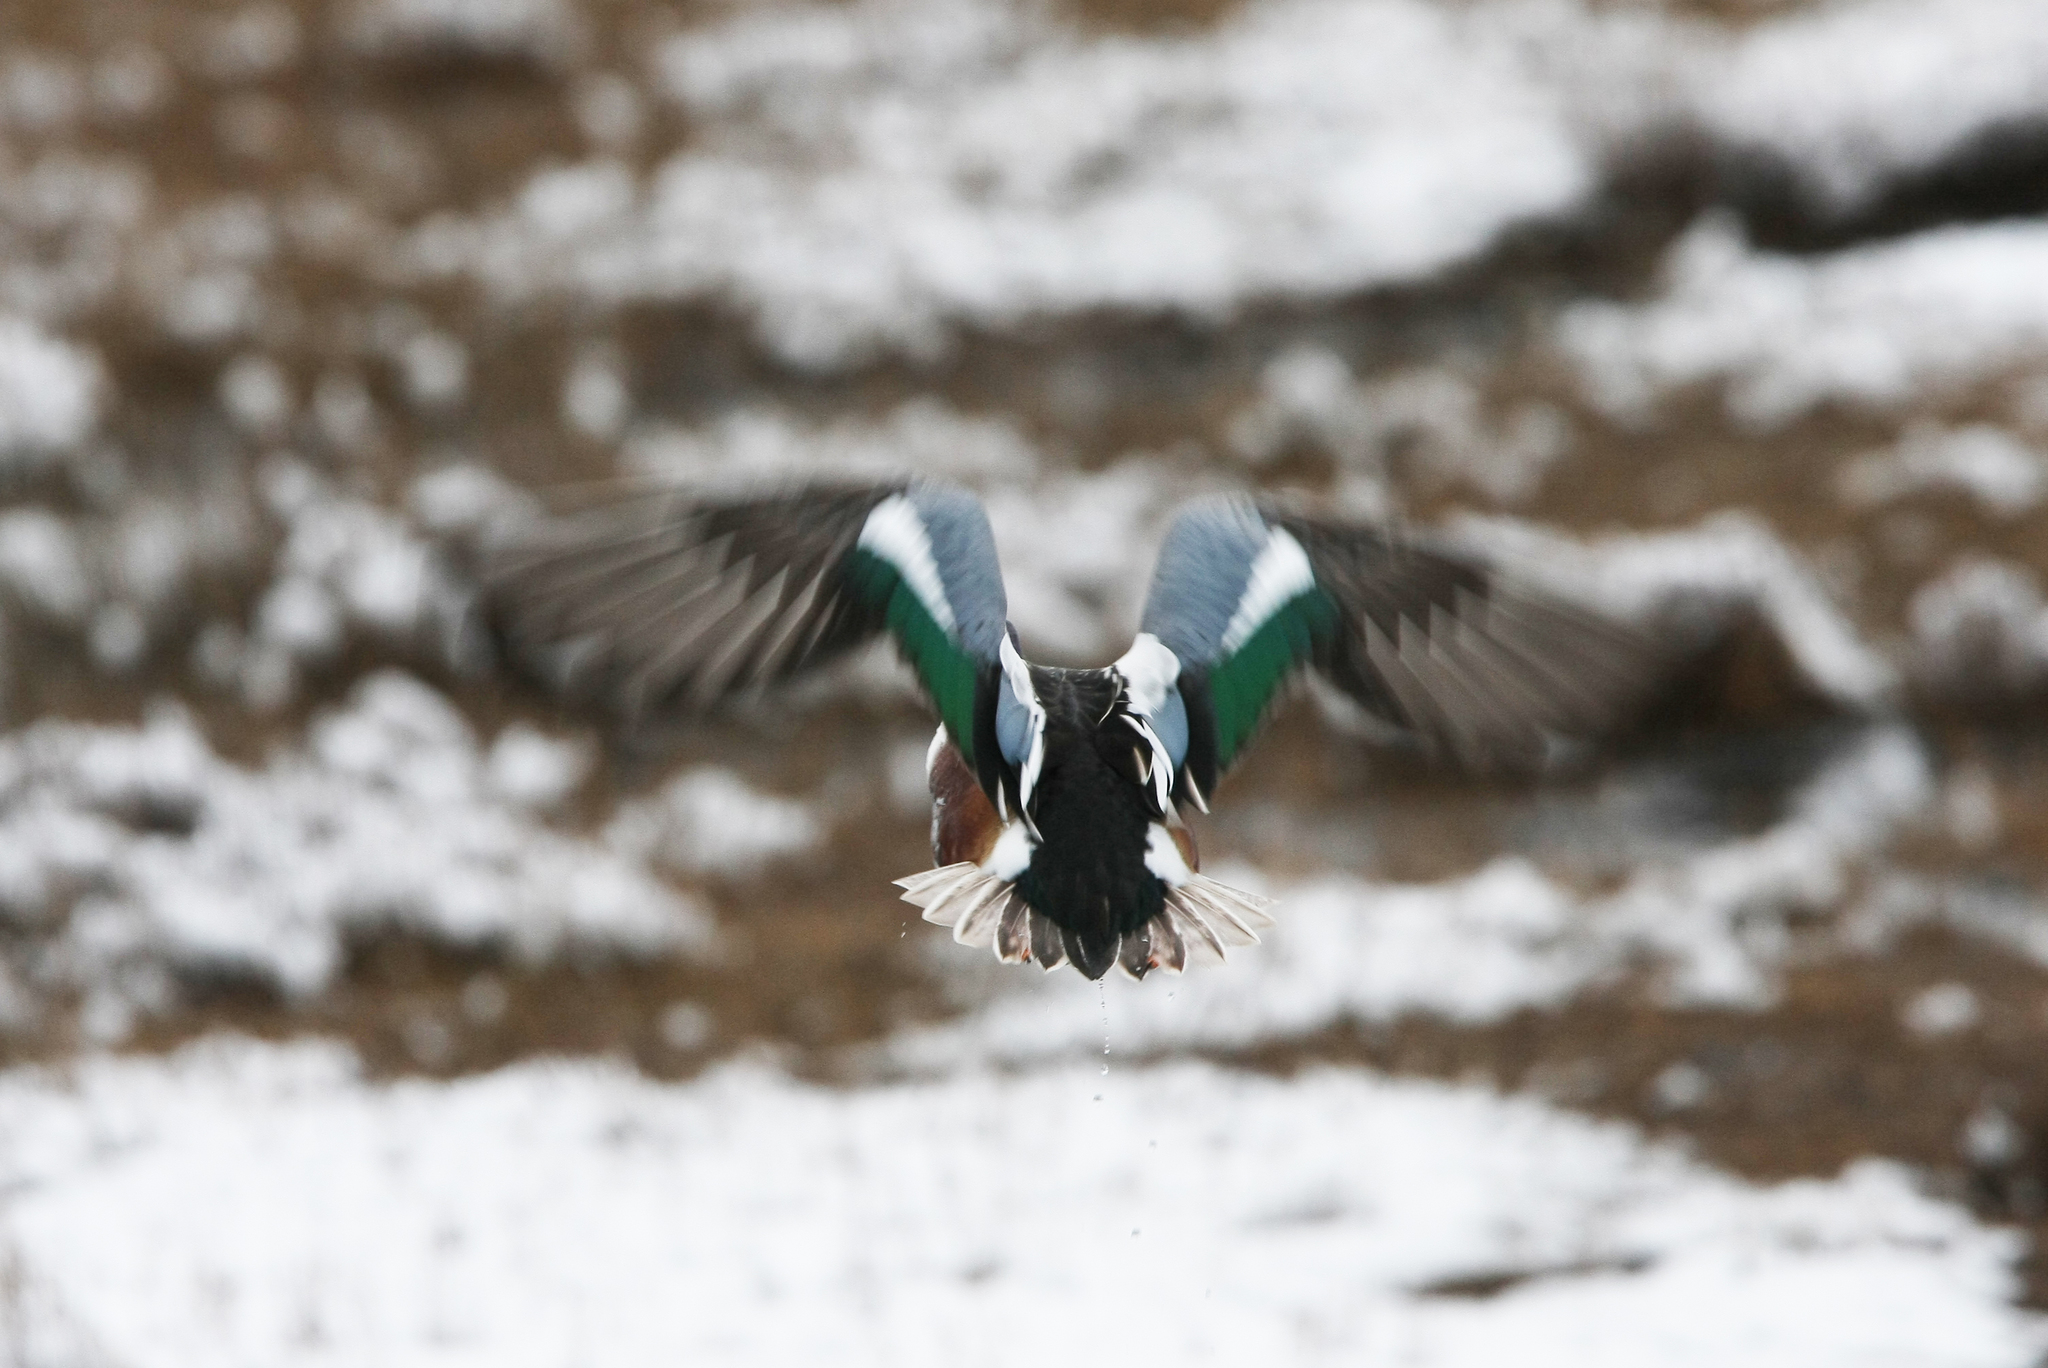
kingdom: Animalia
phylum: Chordata
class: Aves
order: Anseriformes
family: Anatidae
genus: Spatula
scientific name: Spatula clypeata
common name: Northern shoveler
